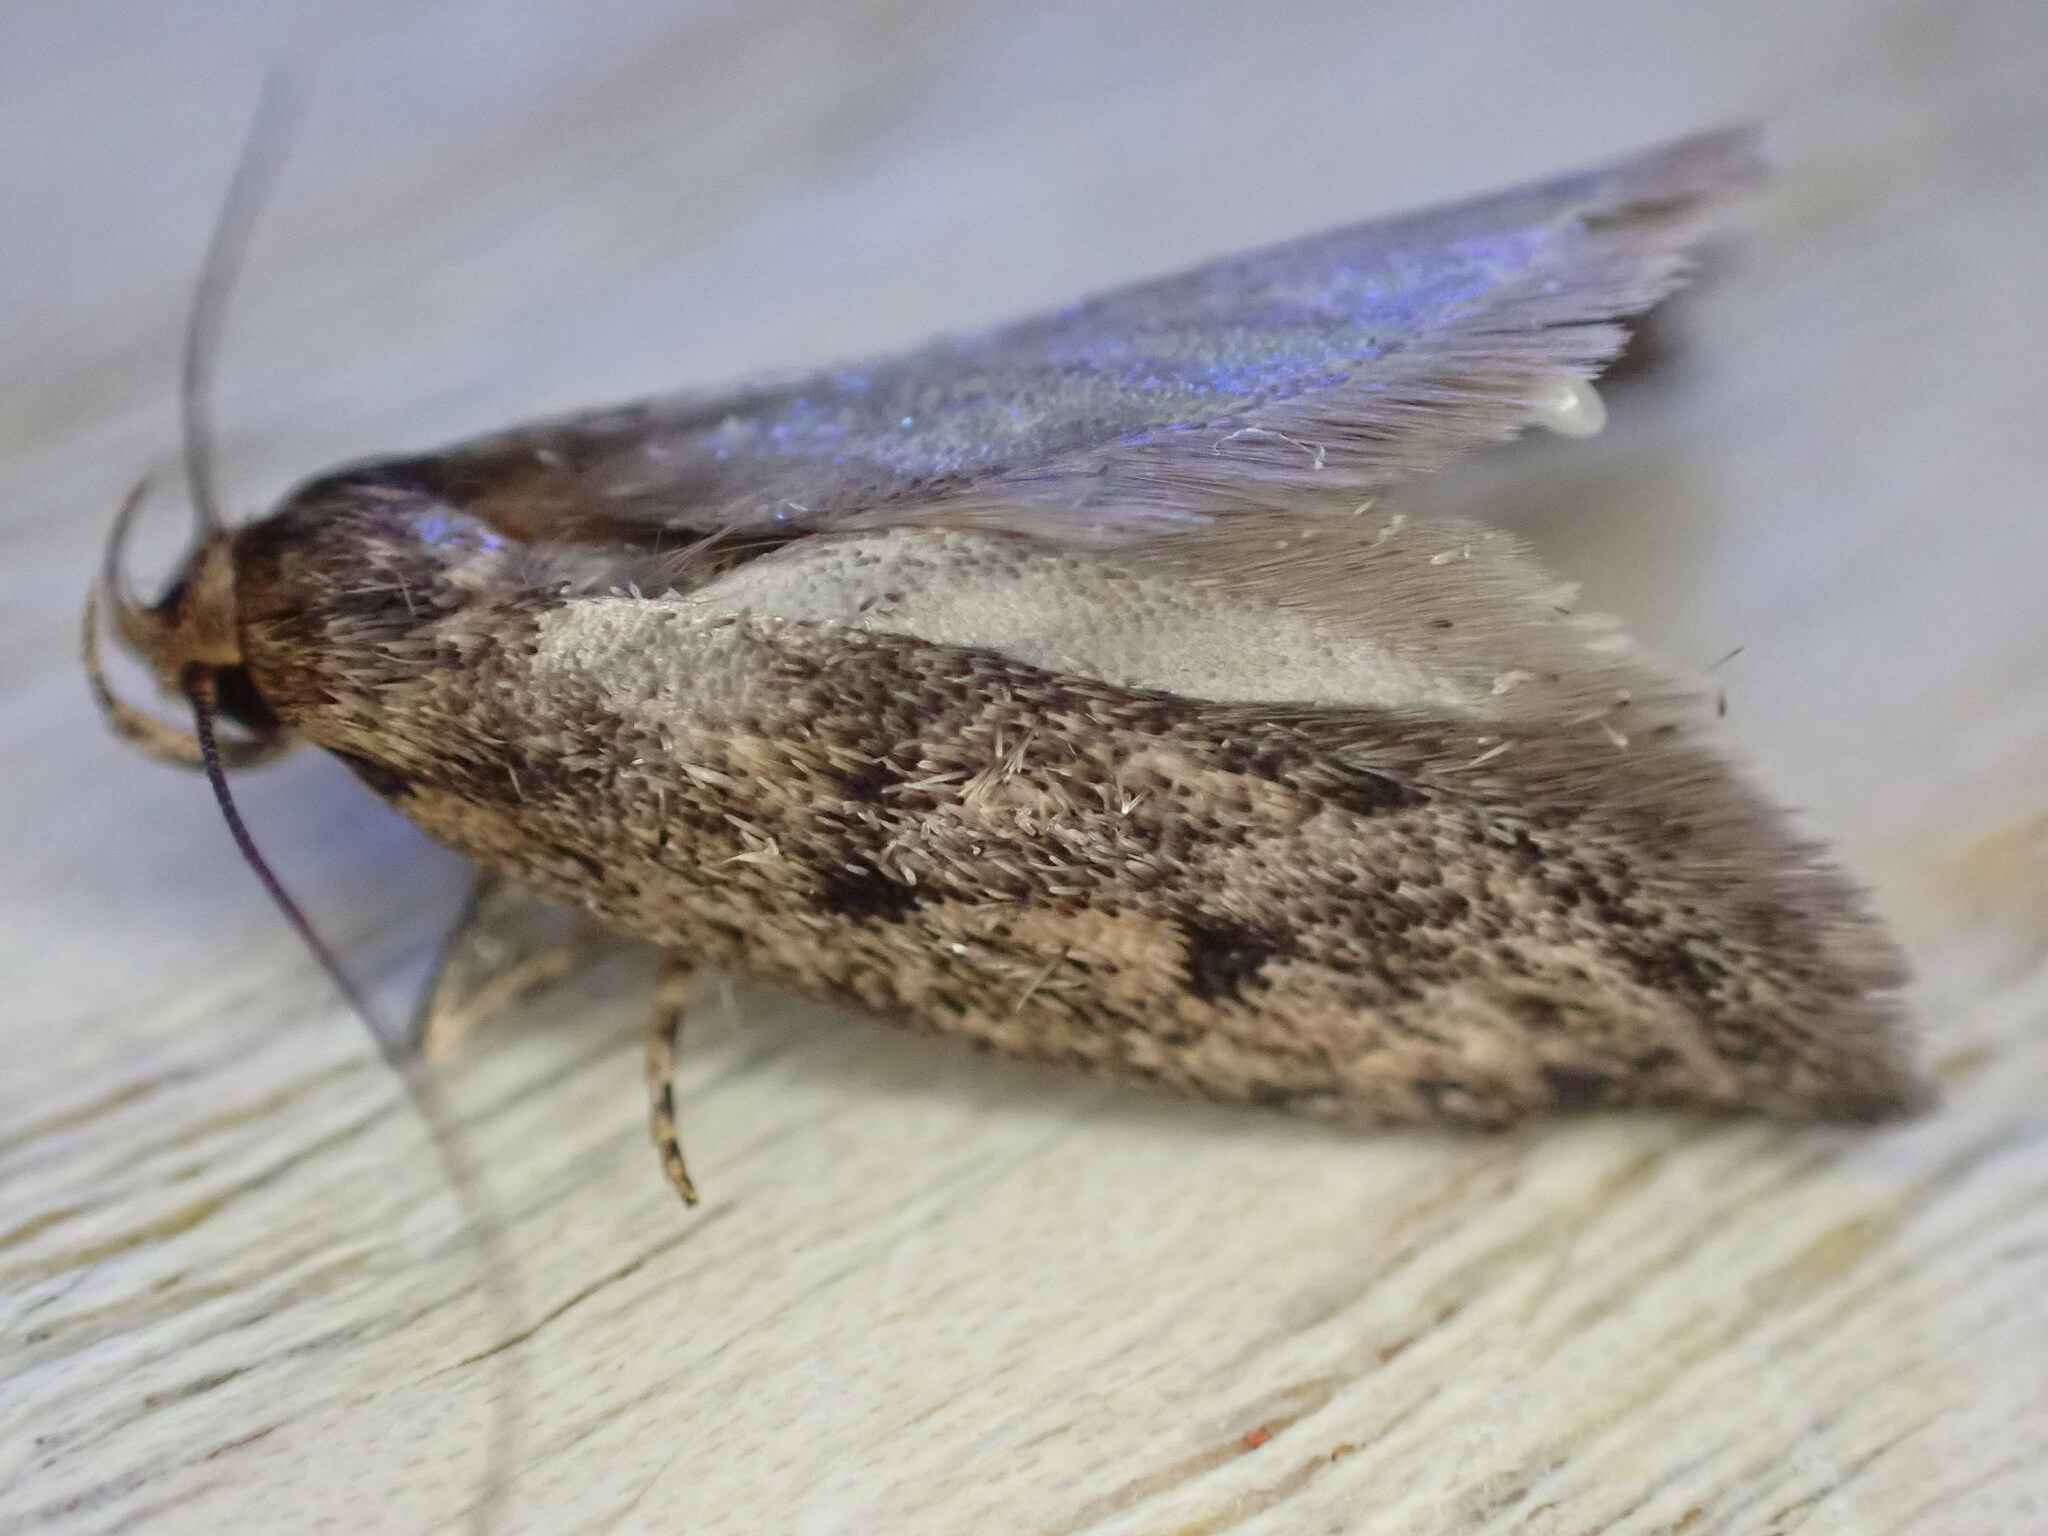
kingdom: Animalia
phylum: Arthropoda
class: Insecta
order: Lepidoptera
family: Oecophoridae
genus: Hofmannophila
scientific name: Hofmannophila pseudospretella
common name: Brown house moth
